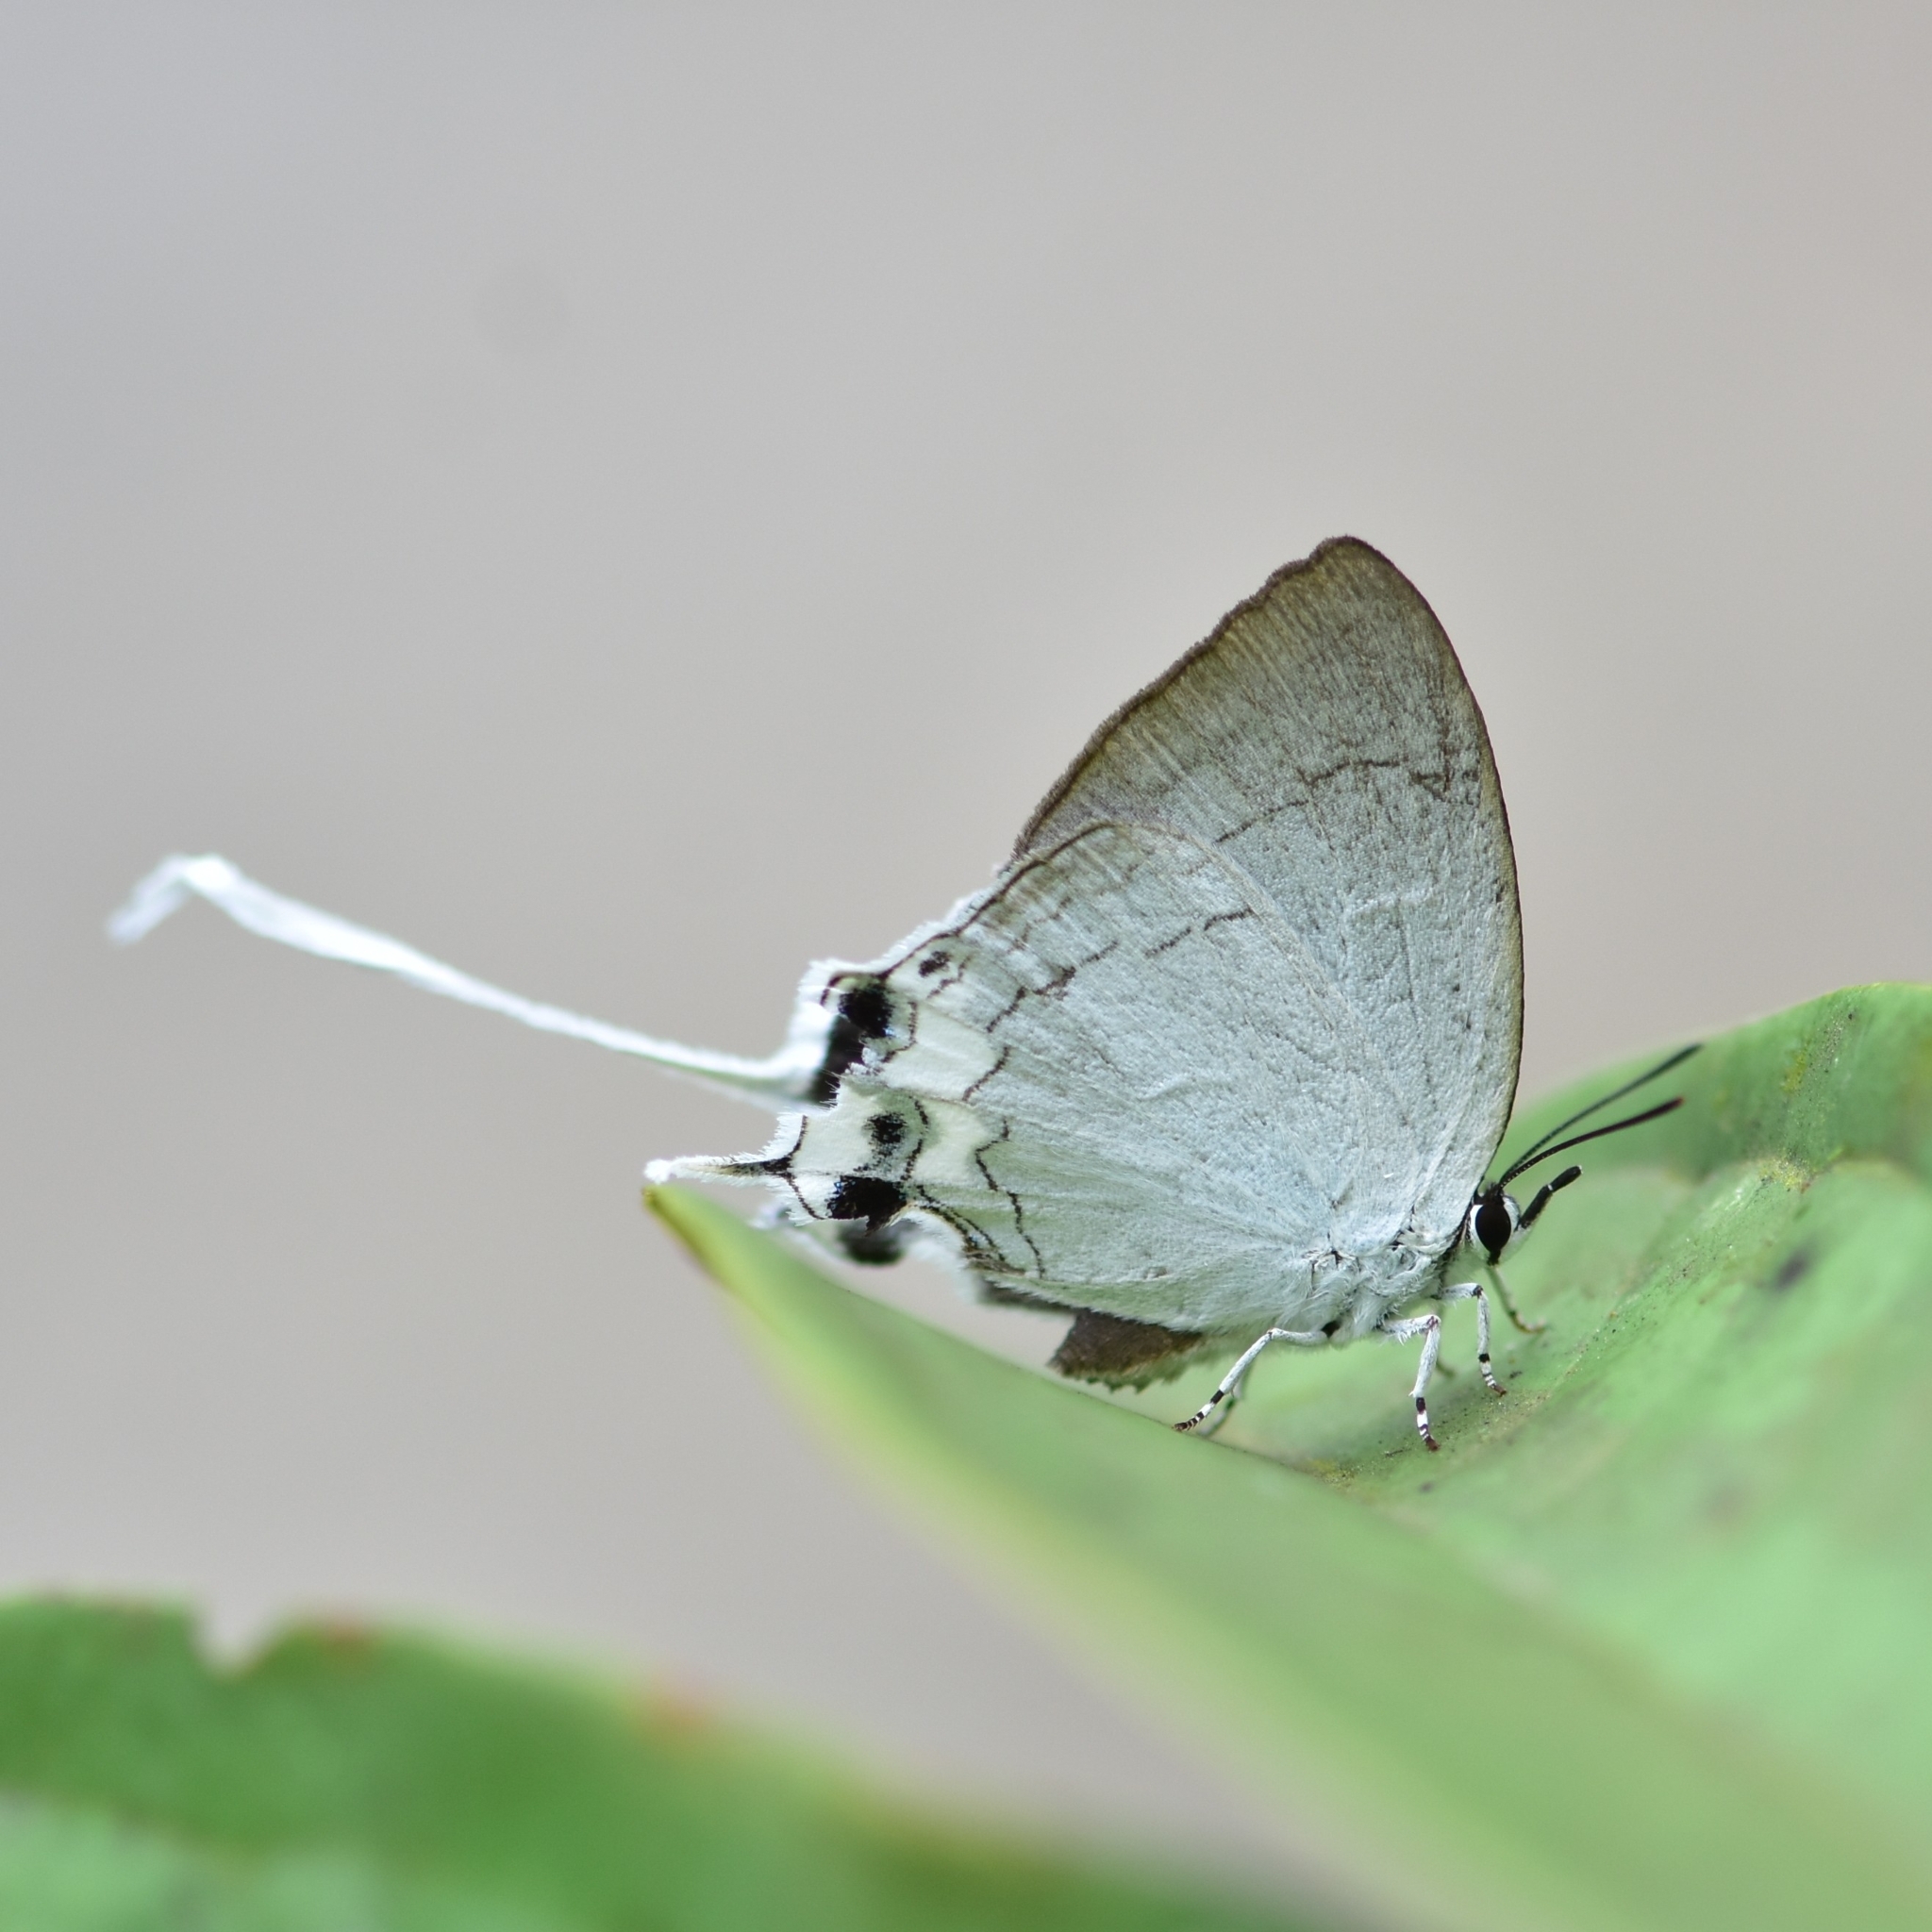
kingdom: Animalia
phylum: Arthropoda
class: Insecta
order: Lepidoptera
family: Lycaenidae
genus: Cheritra
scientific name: Cheritra freja
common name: Common imperial
